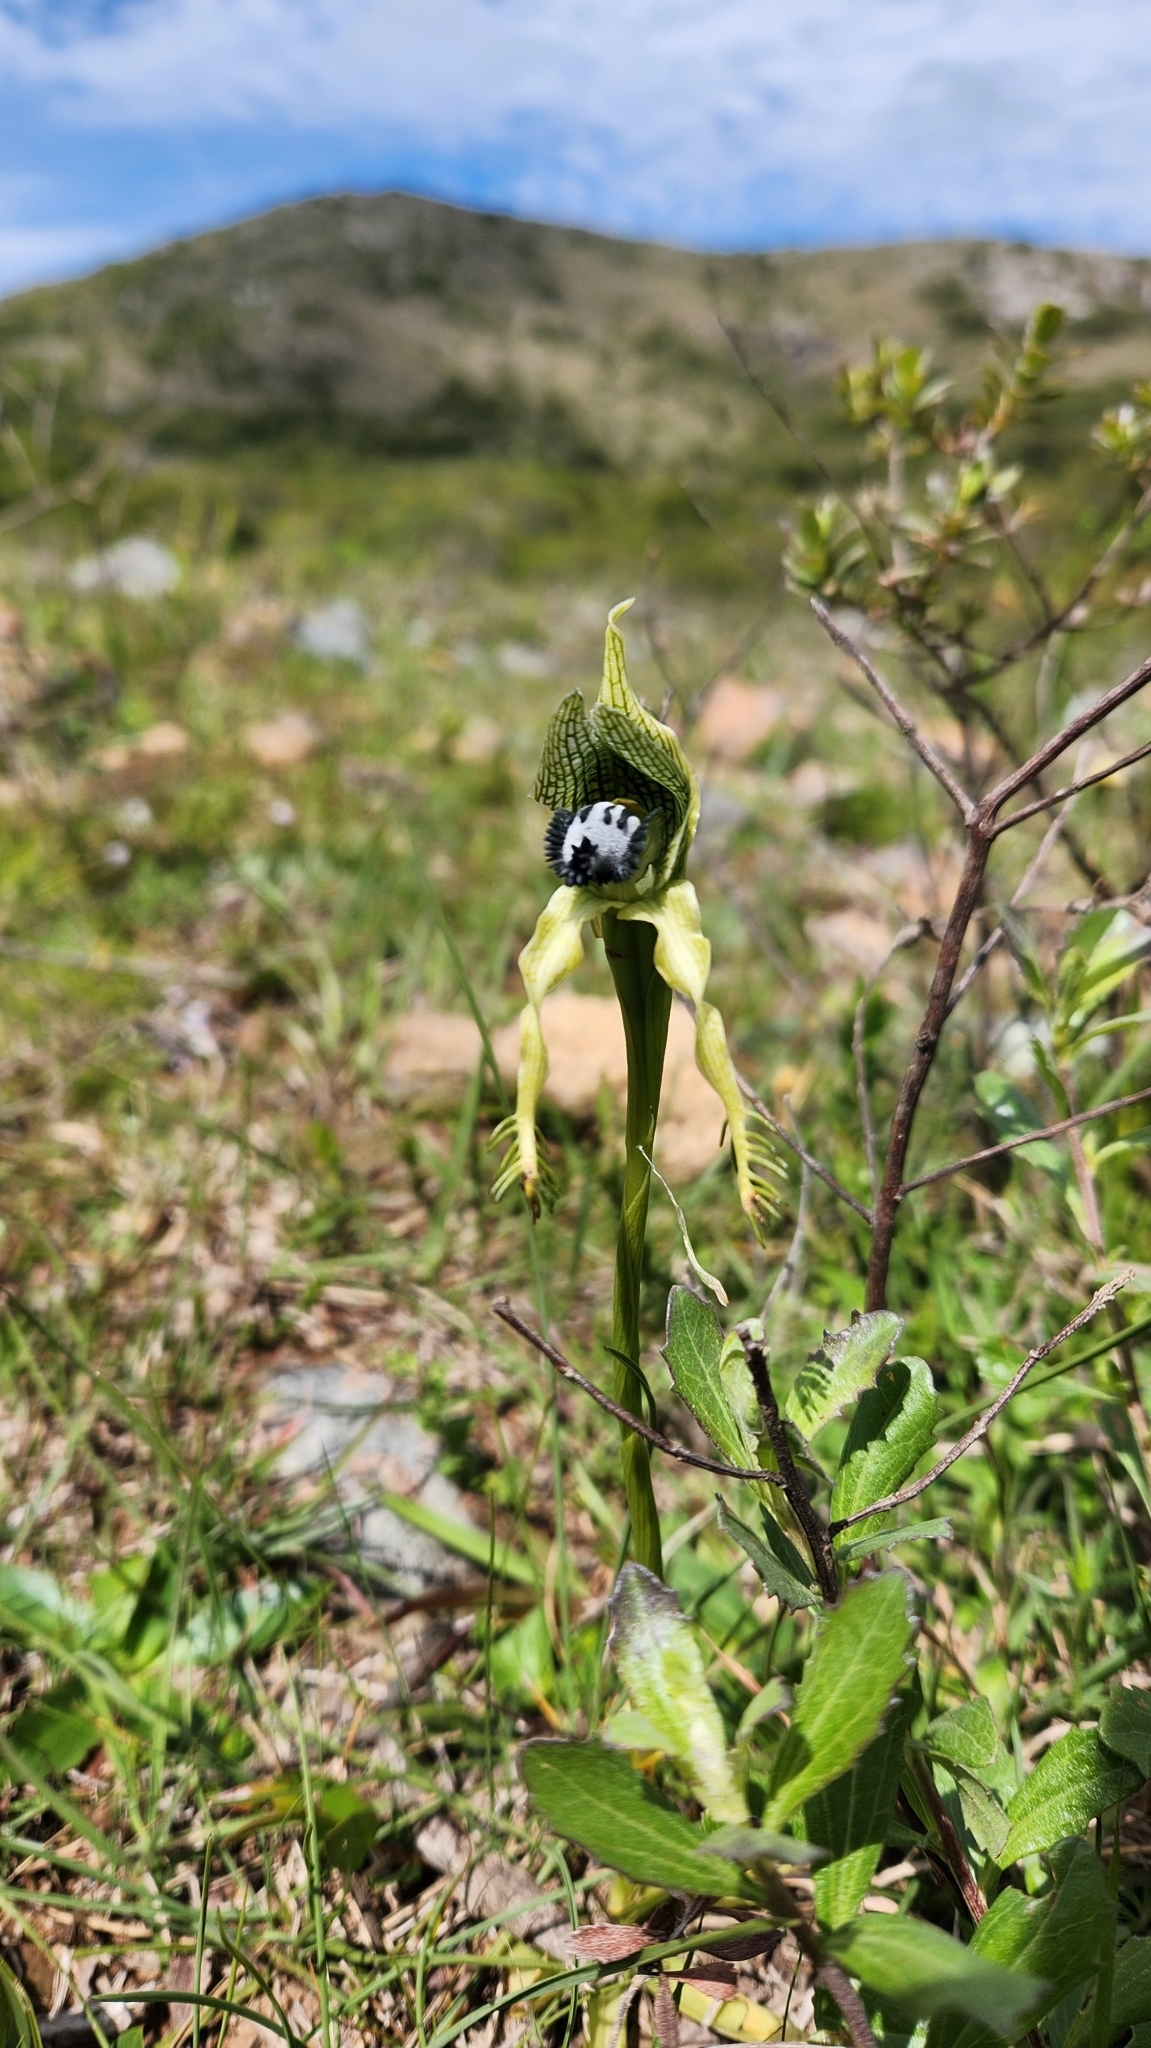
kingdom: Plantae
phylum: Tracheophyta
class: Liliopsida
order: Asparagales
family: Orchidaceae
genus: Bipinnula
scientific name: Bipinnula montana
